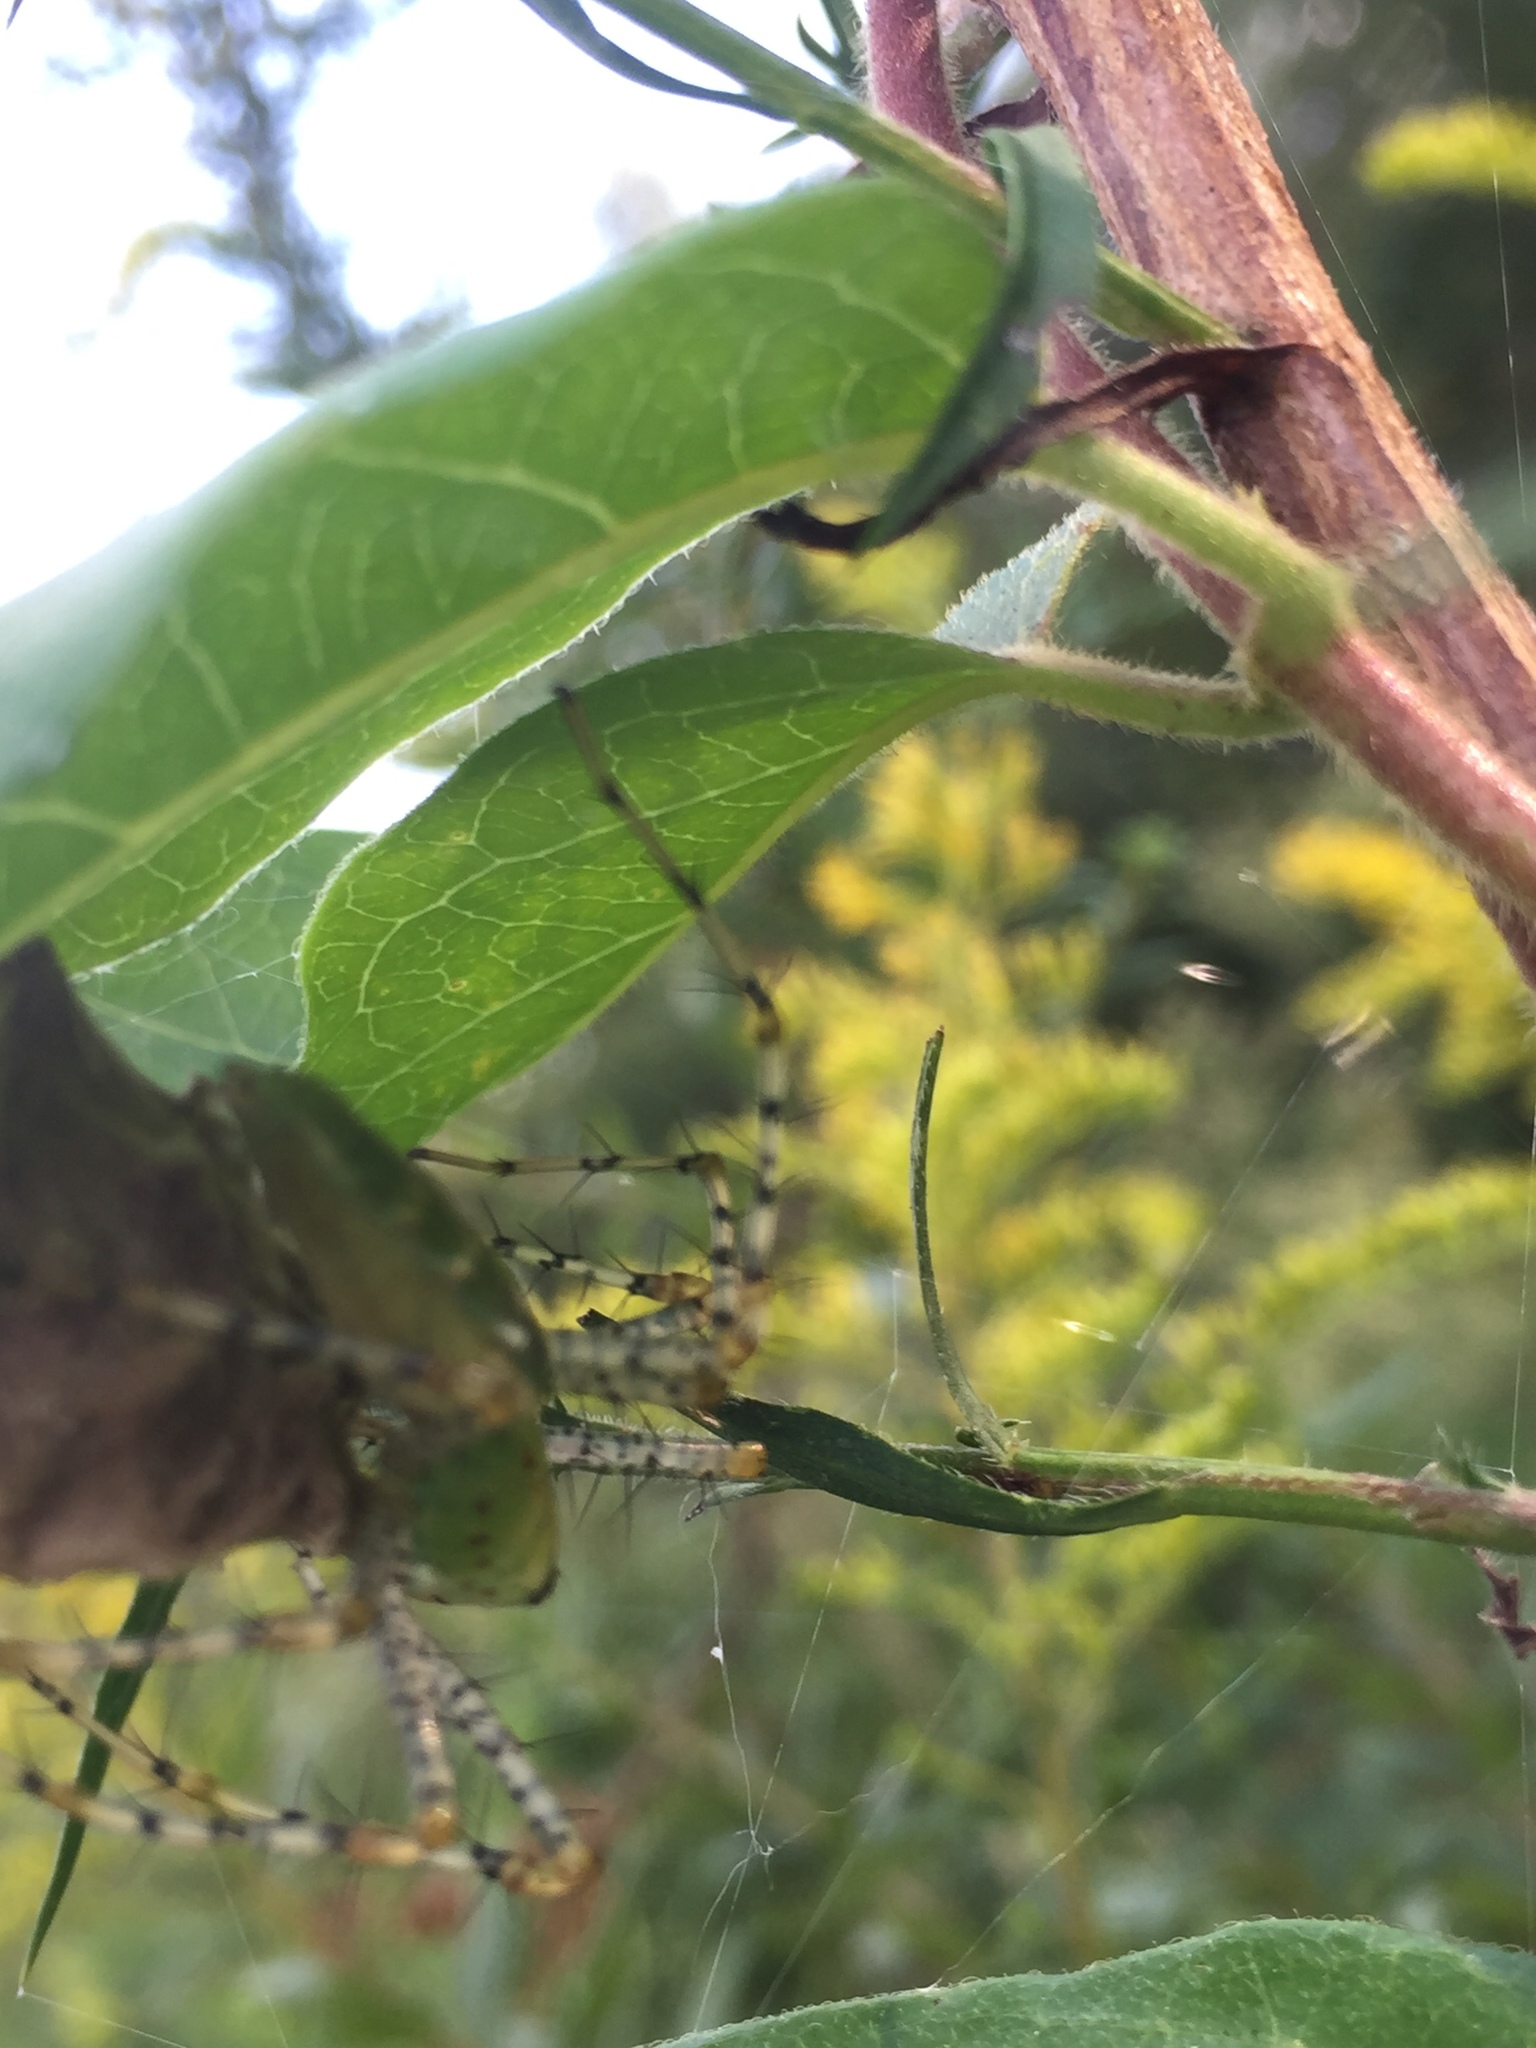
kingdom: Animalia
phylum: Arthropoda
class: Arachnida
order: Araneae
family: Oxyopidae
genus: Peucetia
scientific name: Peucetia viridans
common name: Lynx spiders
